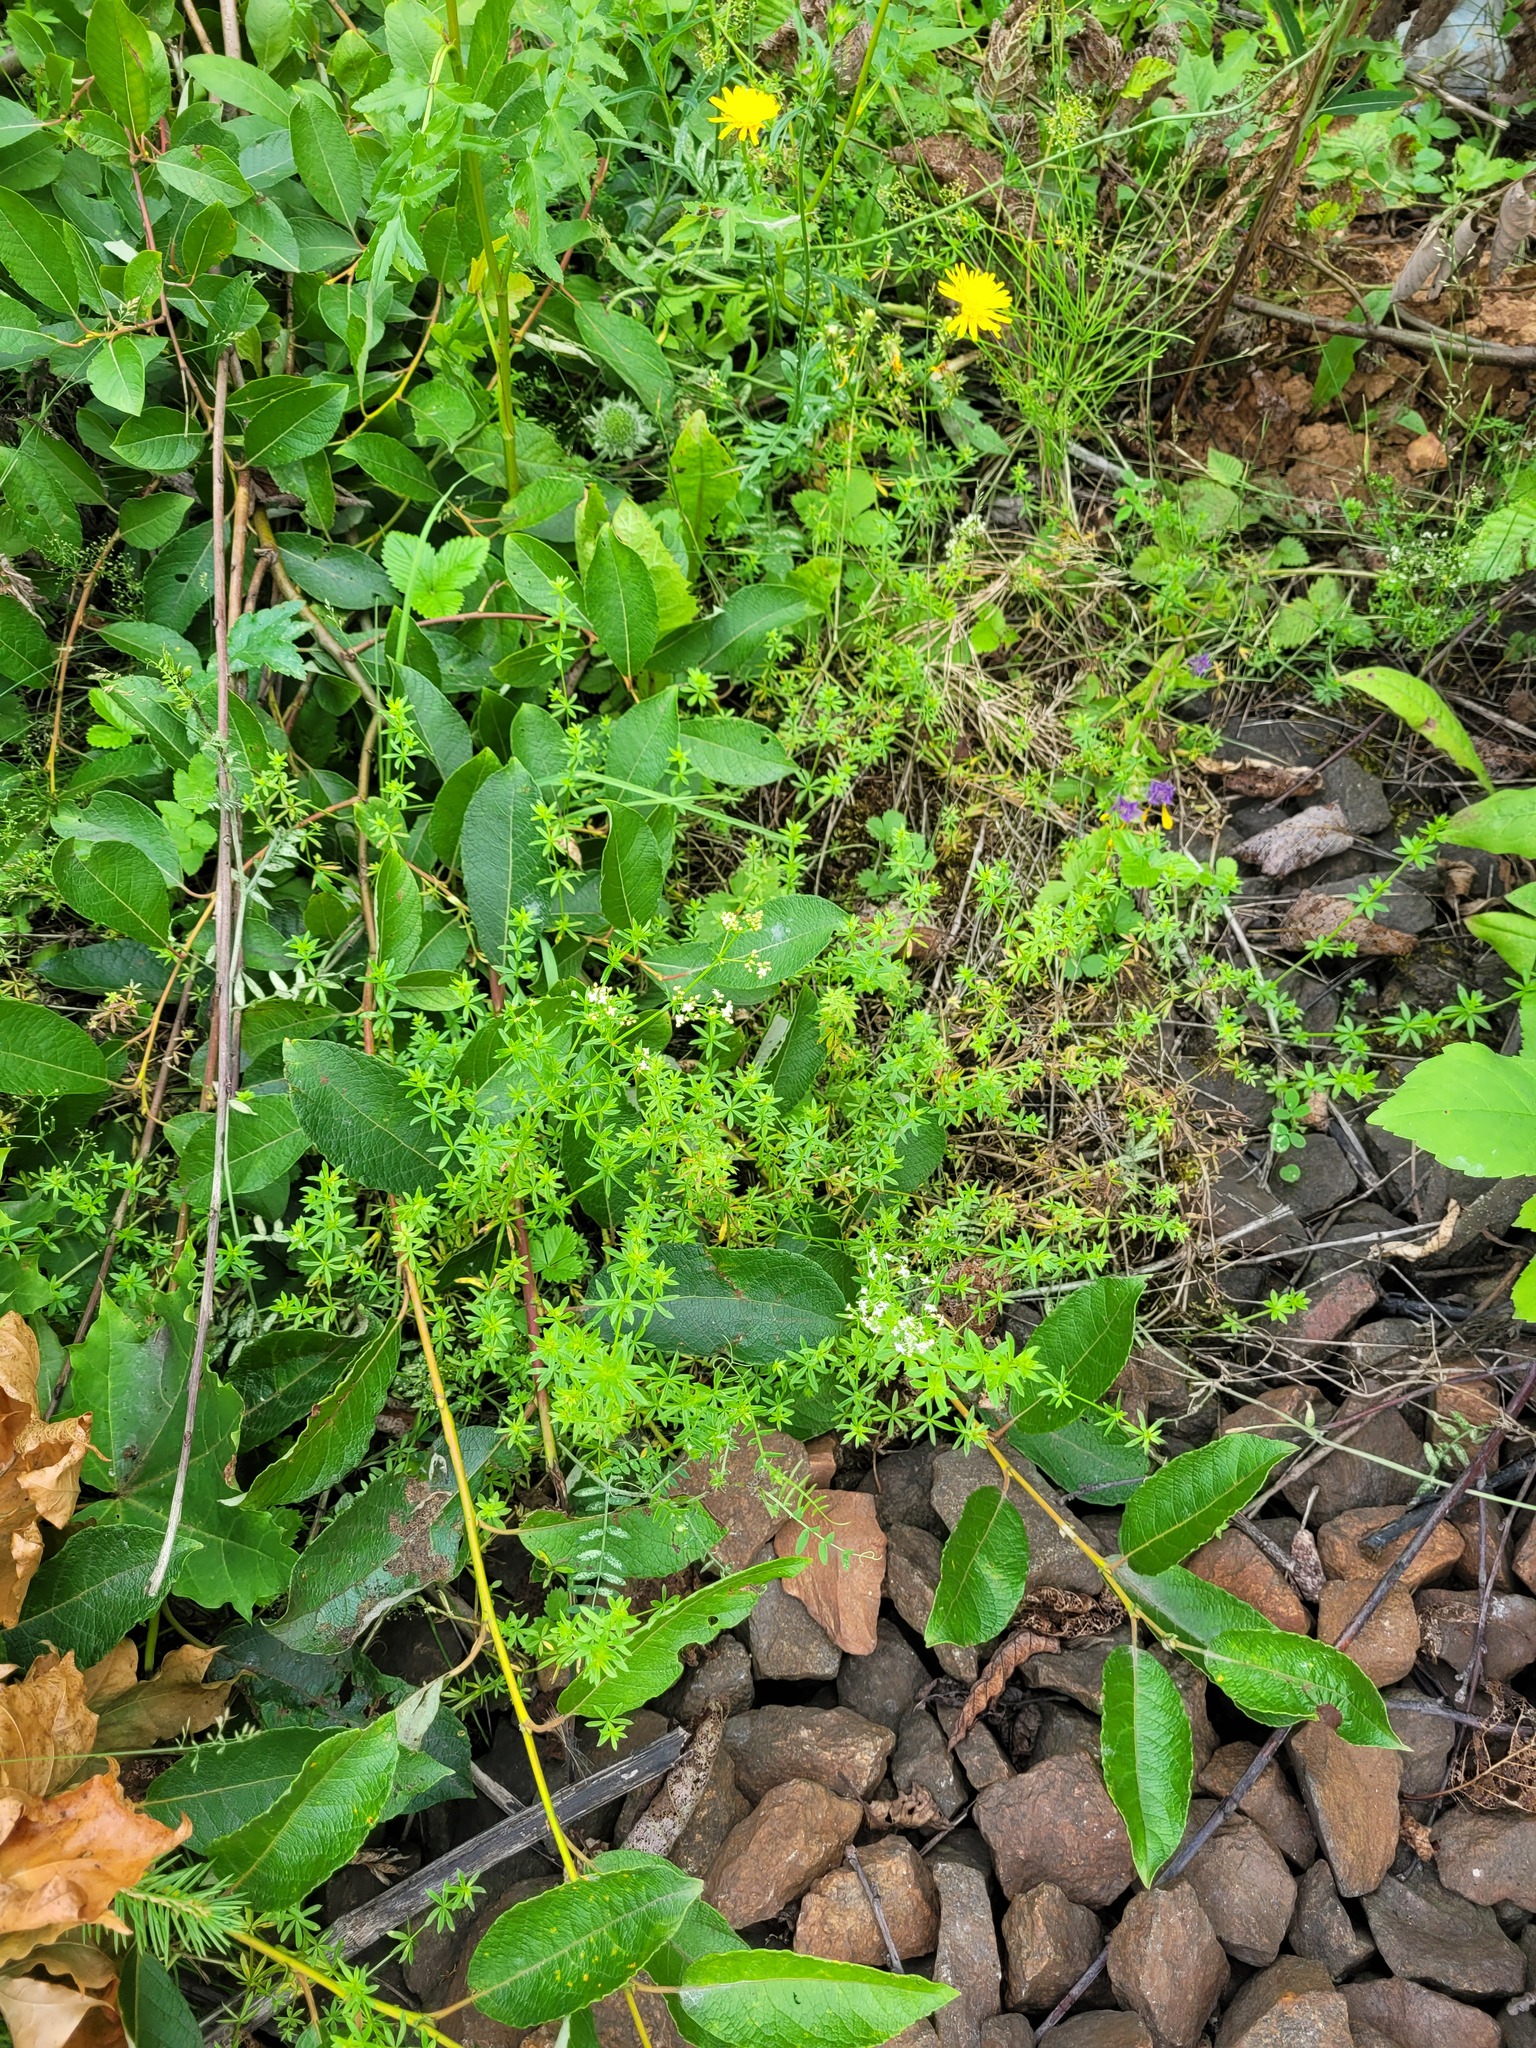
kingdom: Plantae
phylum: Tracheophyta
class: Magnoliopsida
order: Malpighiales
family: Salicaceae
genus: Salix
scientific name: Salix caprea
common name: Goat willow
